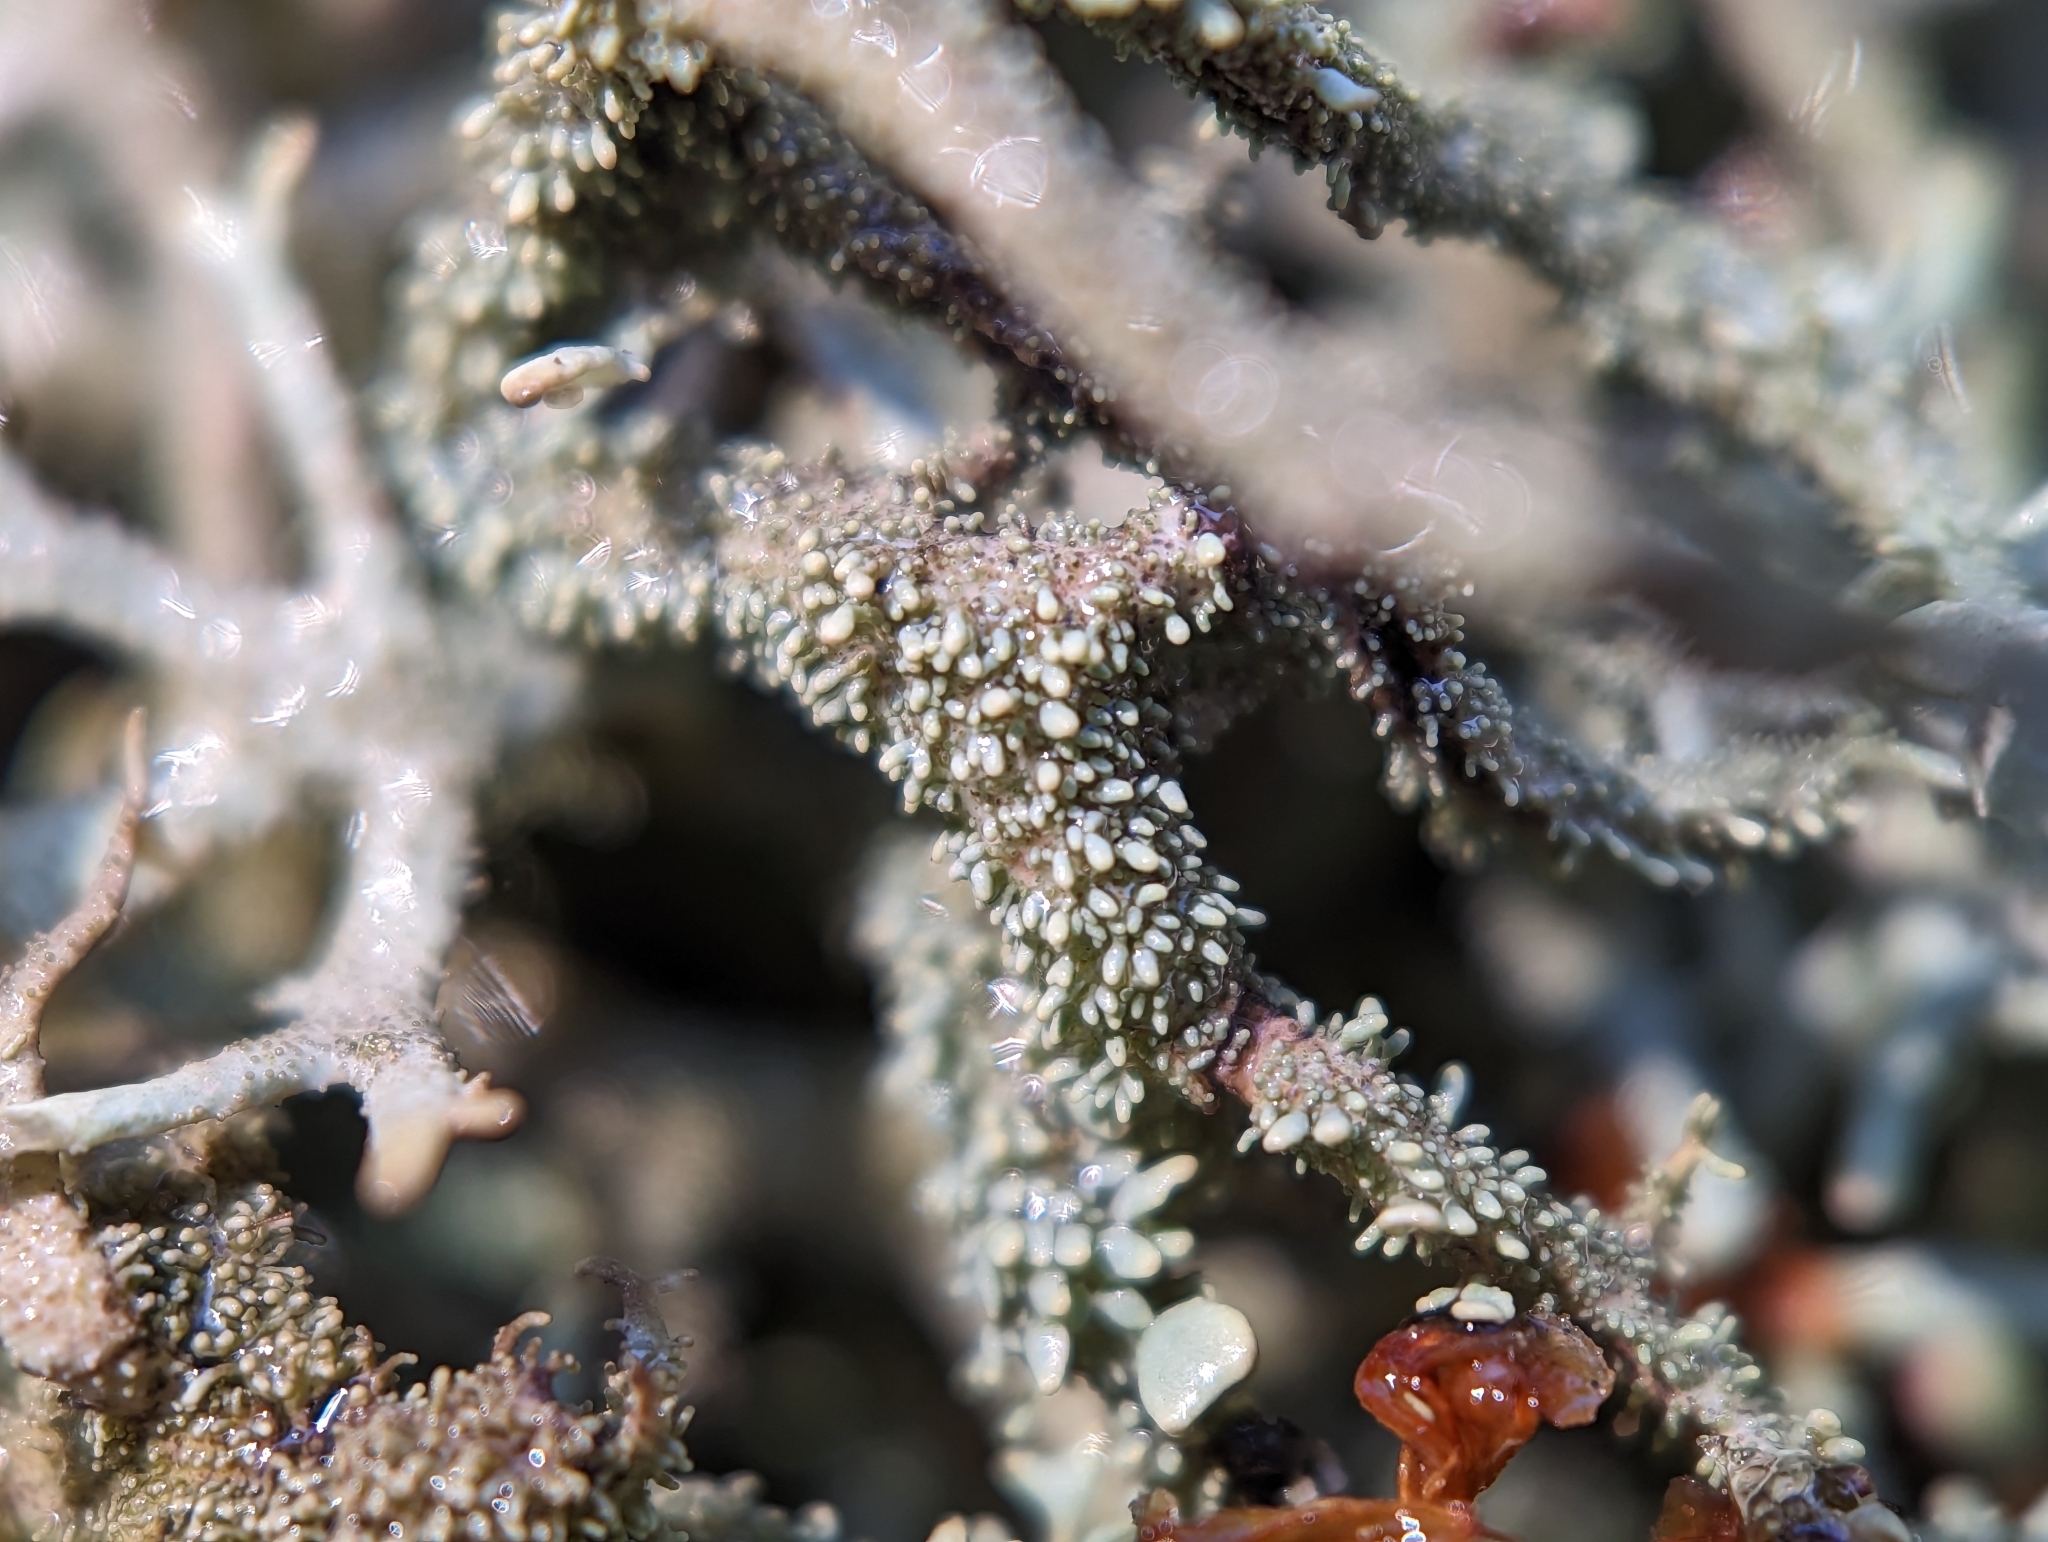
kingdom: Fungi
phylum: Ascomycota
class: Lecanoromycetes
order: Lecanorales
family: Parmeliaceae
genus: Pseudevernia
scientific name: Pseudevernia furfuracea
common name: Tree moss
